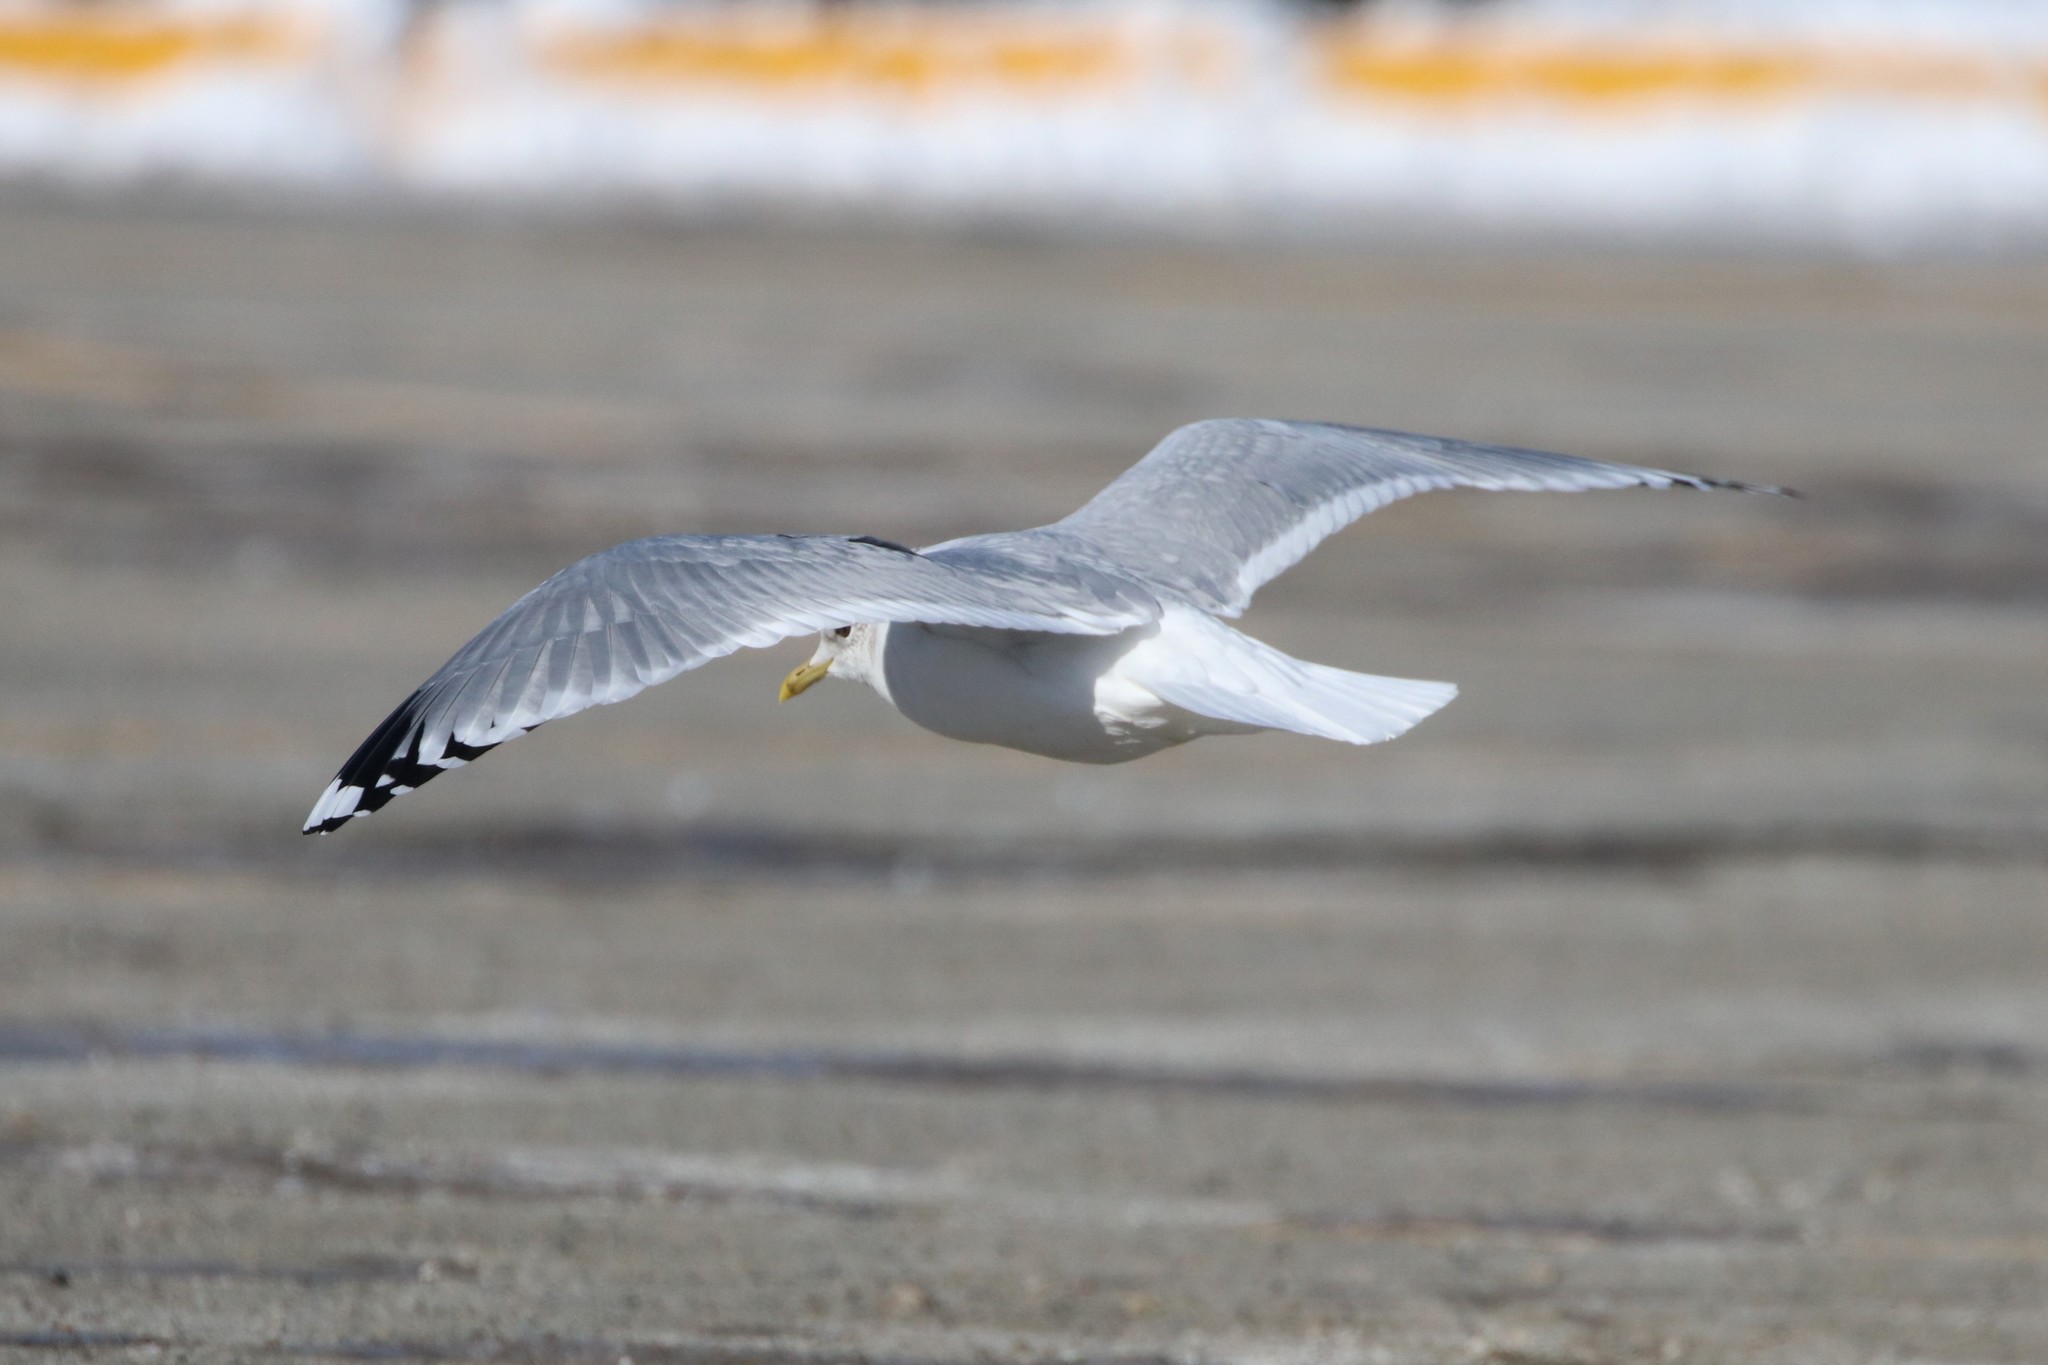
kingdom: Animalia
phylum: Chordata
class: Aves
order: Charadriiformes
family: Laridae
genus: Larus
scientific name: Larus canus
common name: Mew gull
